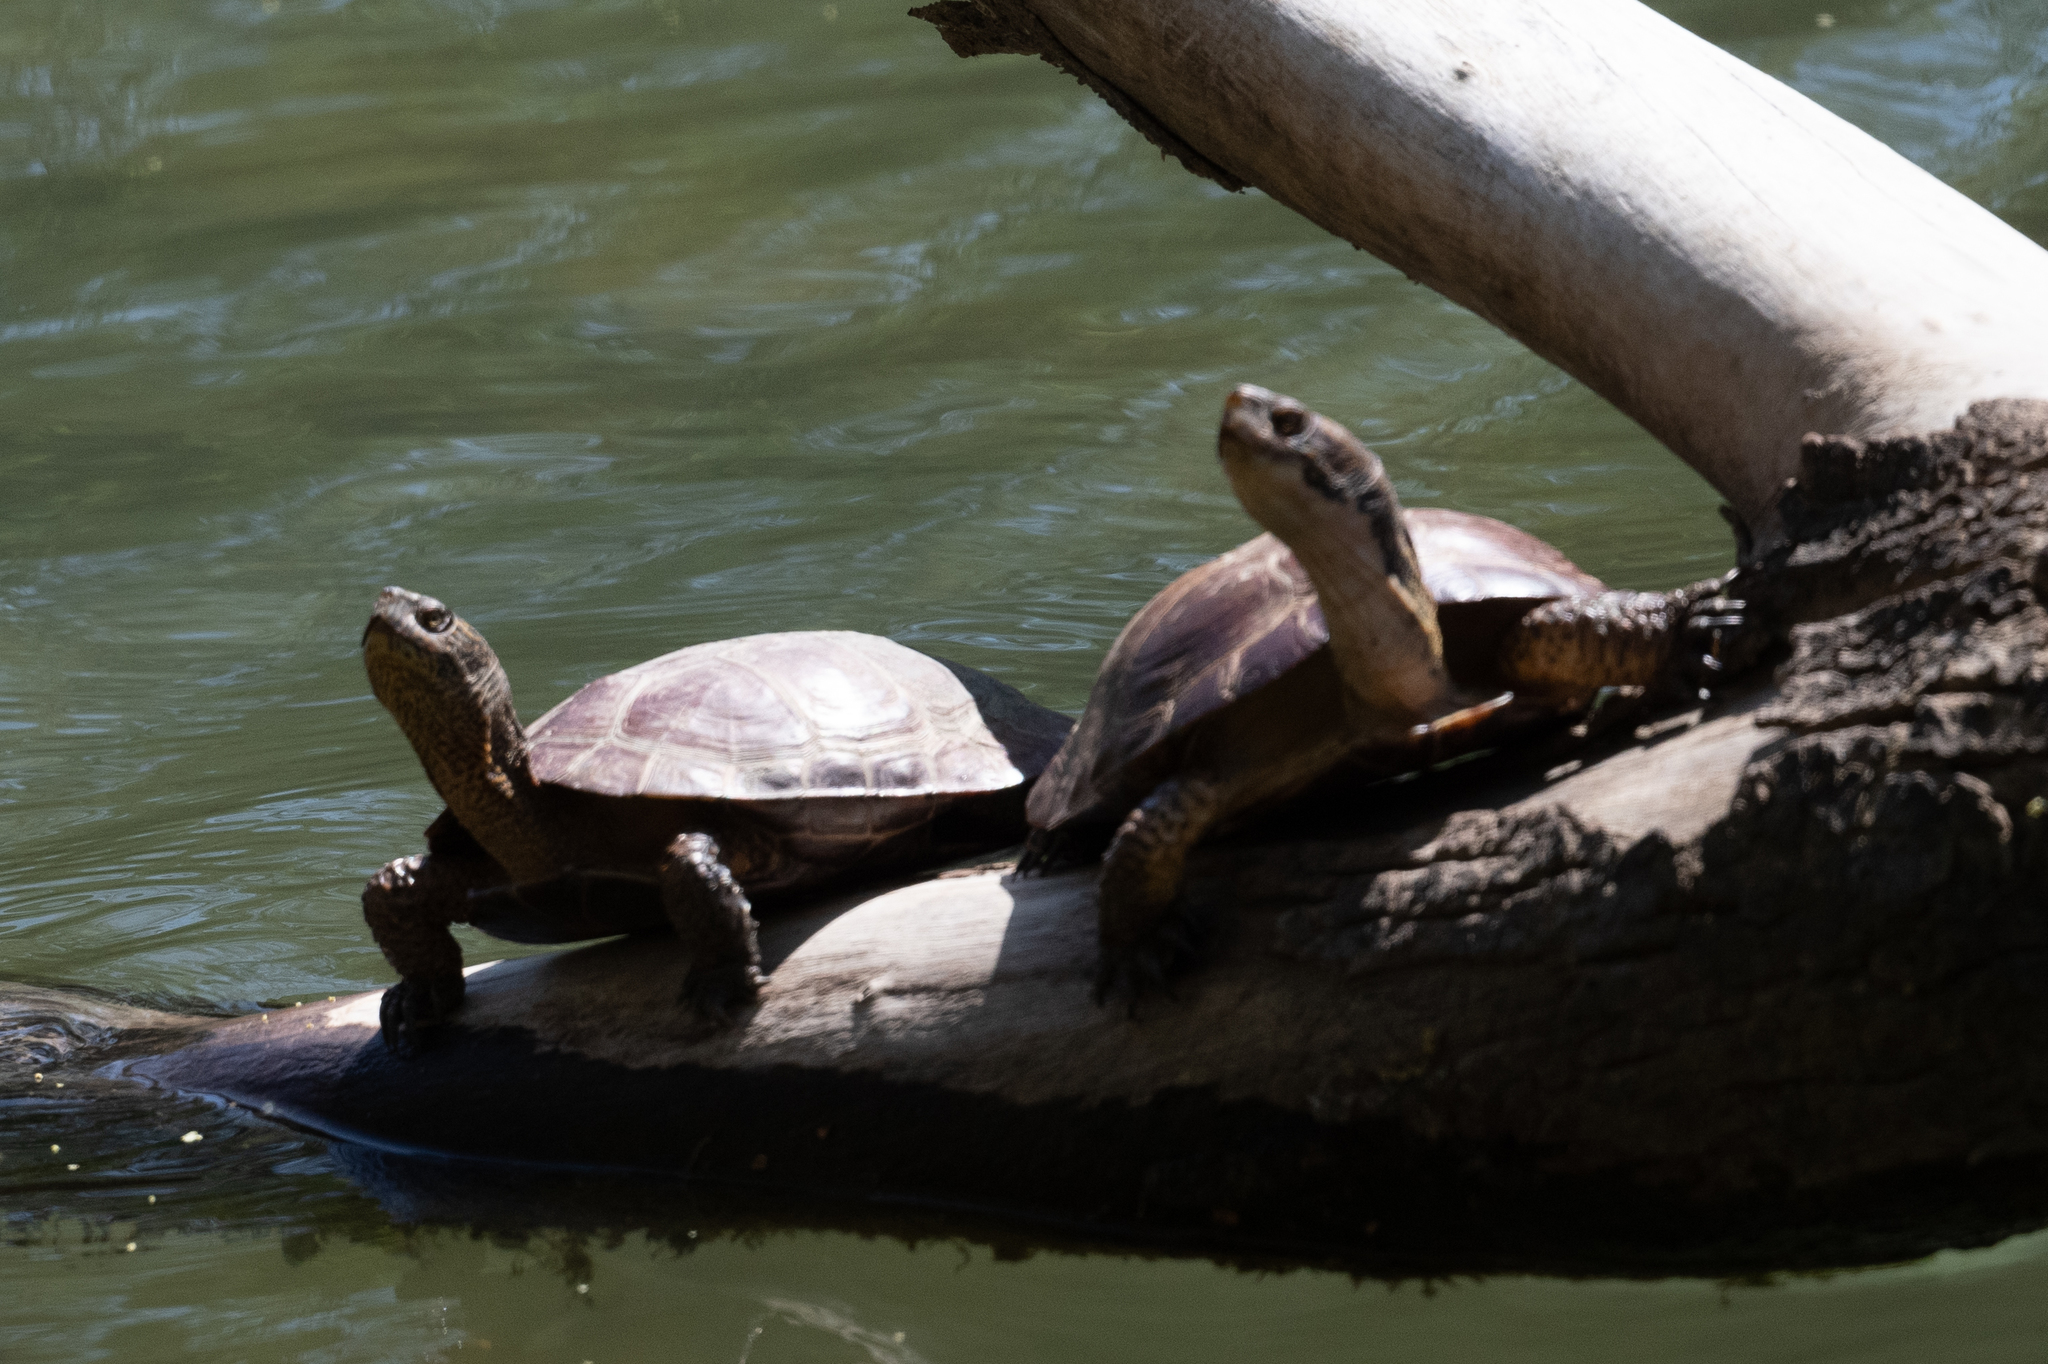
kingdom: Animalia
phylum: Chordata
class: Testudines
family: Emydidae
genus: Actinemys
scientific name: Actinemys marmorata
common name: Western pond turtle
